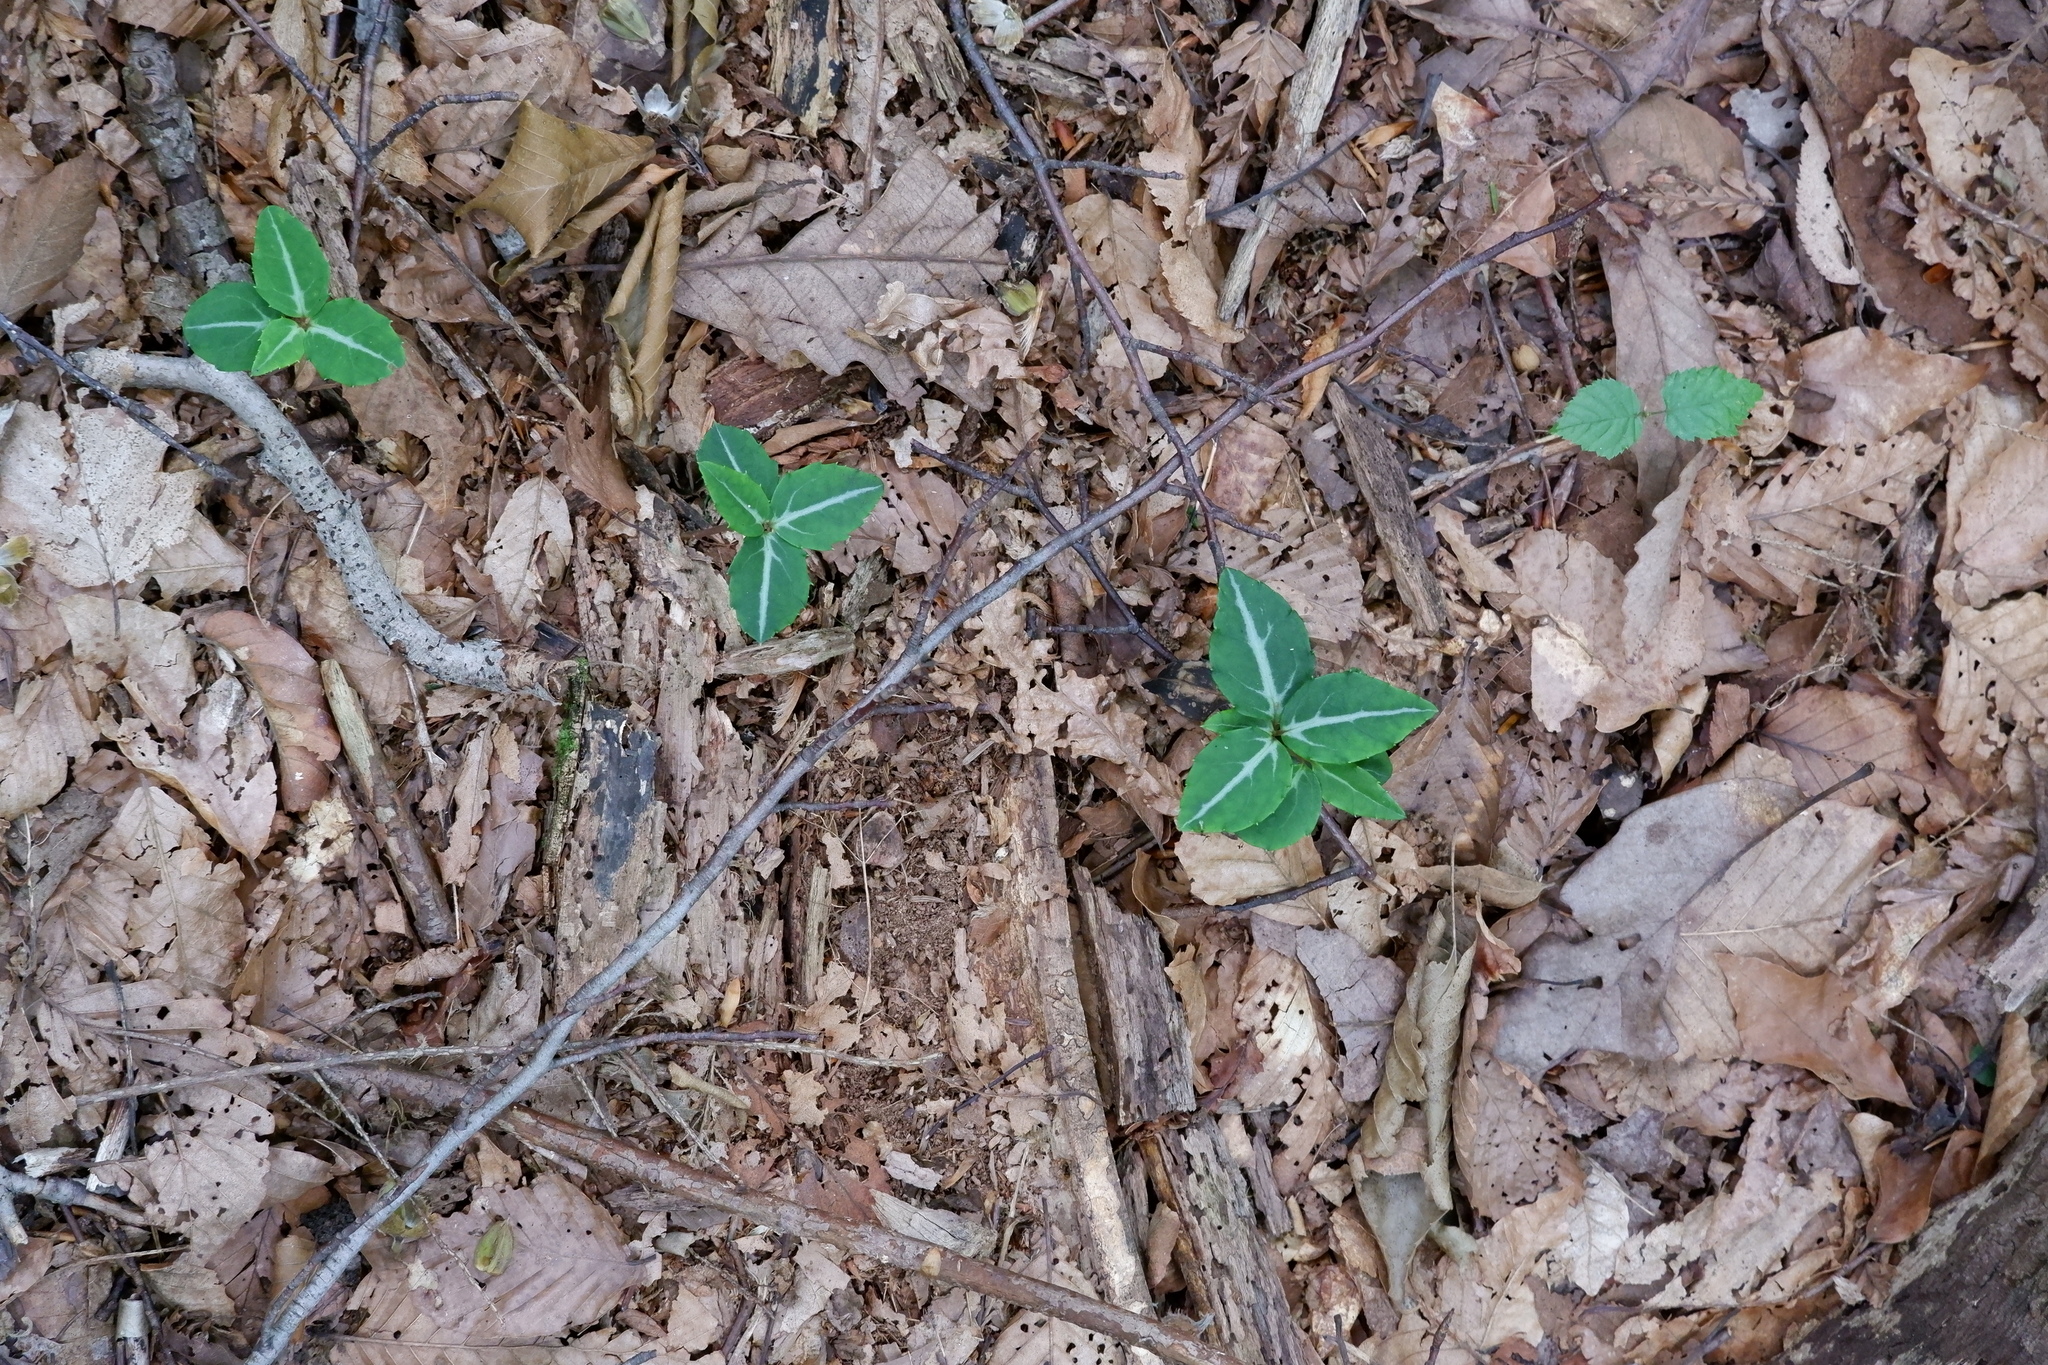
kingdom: Plantae
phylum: Tracheophyta
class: Magnoliopsida
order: Ericales
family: Ericaceae
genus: Chimaphila
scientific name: Chimaphila maculata
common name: Spotted pipsissewa
